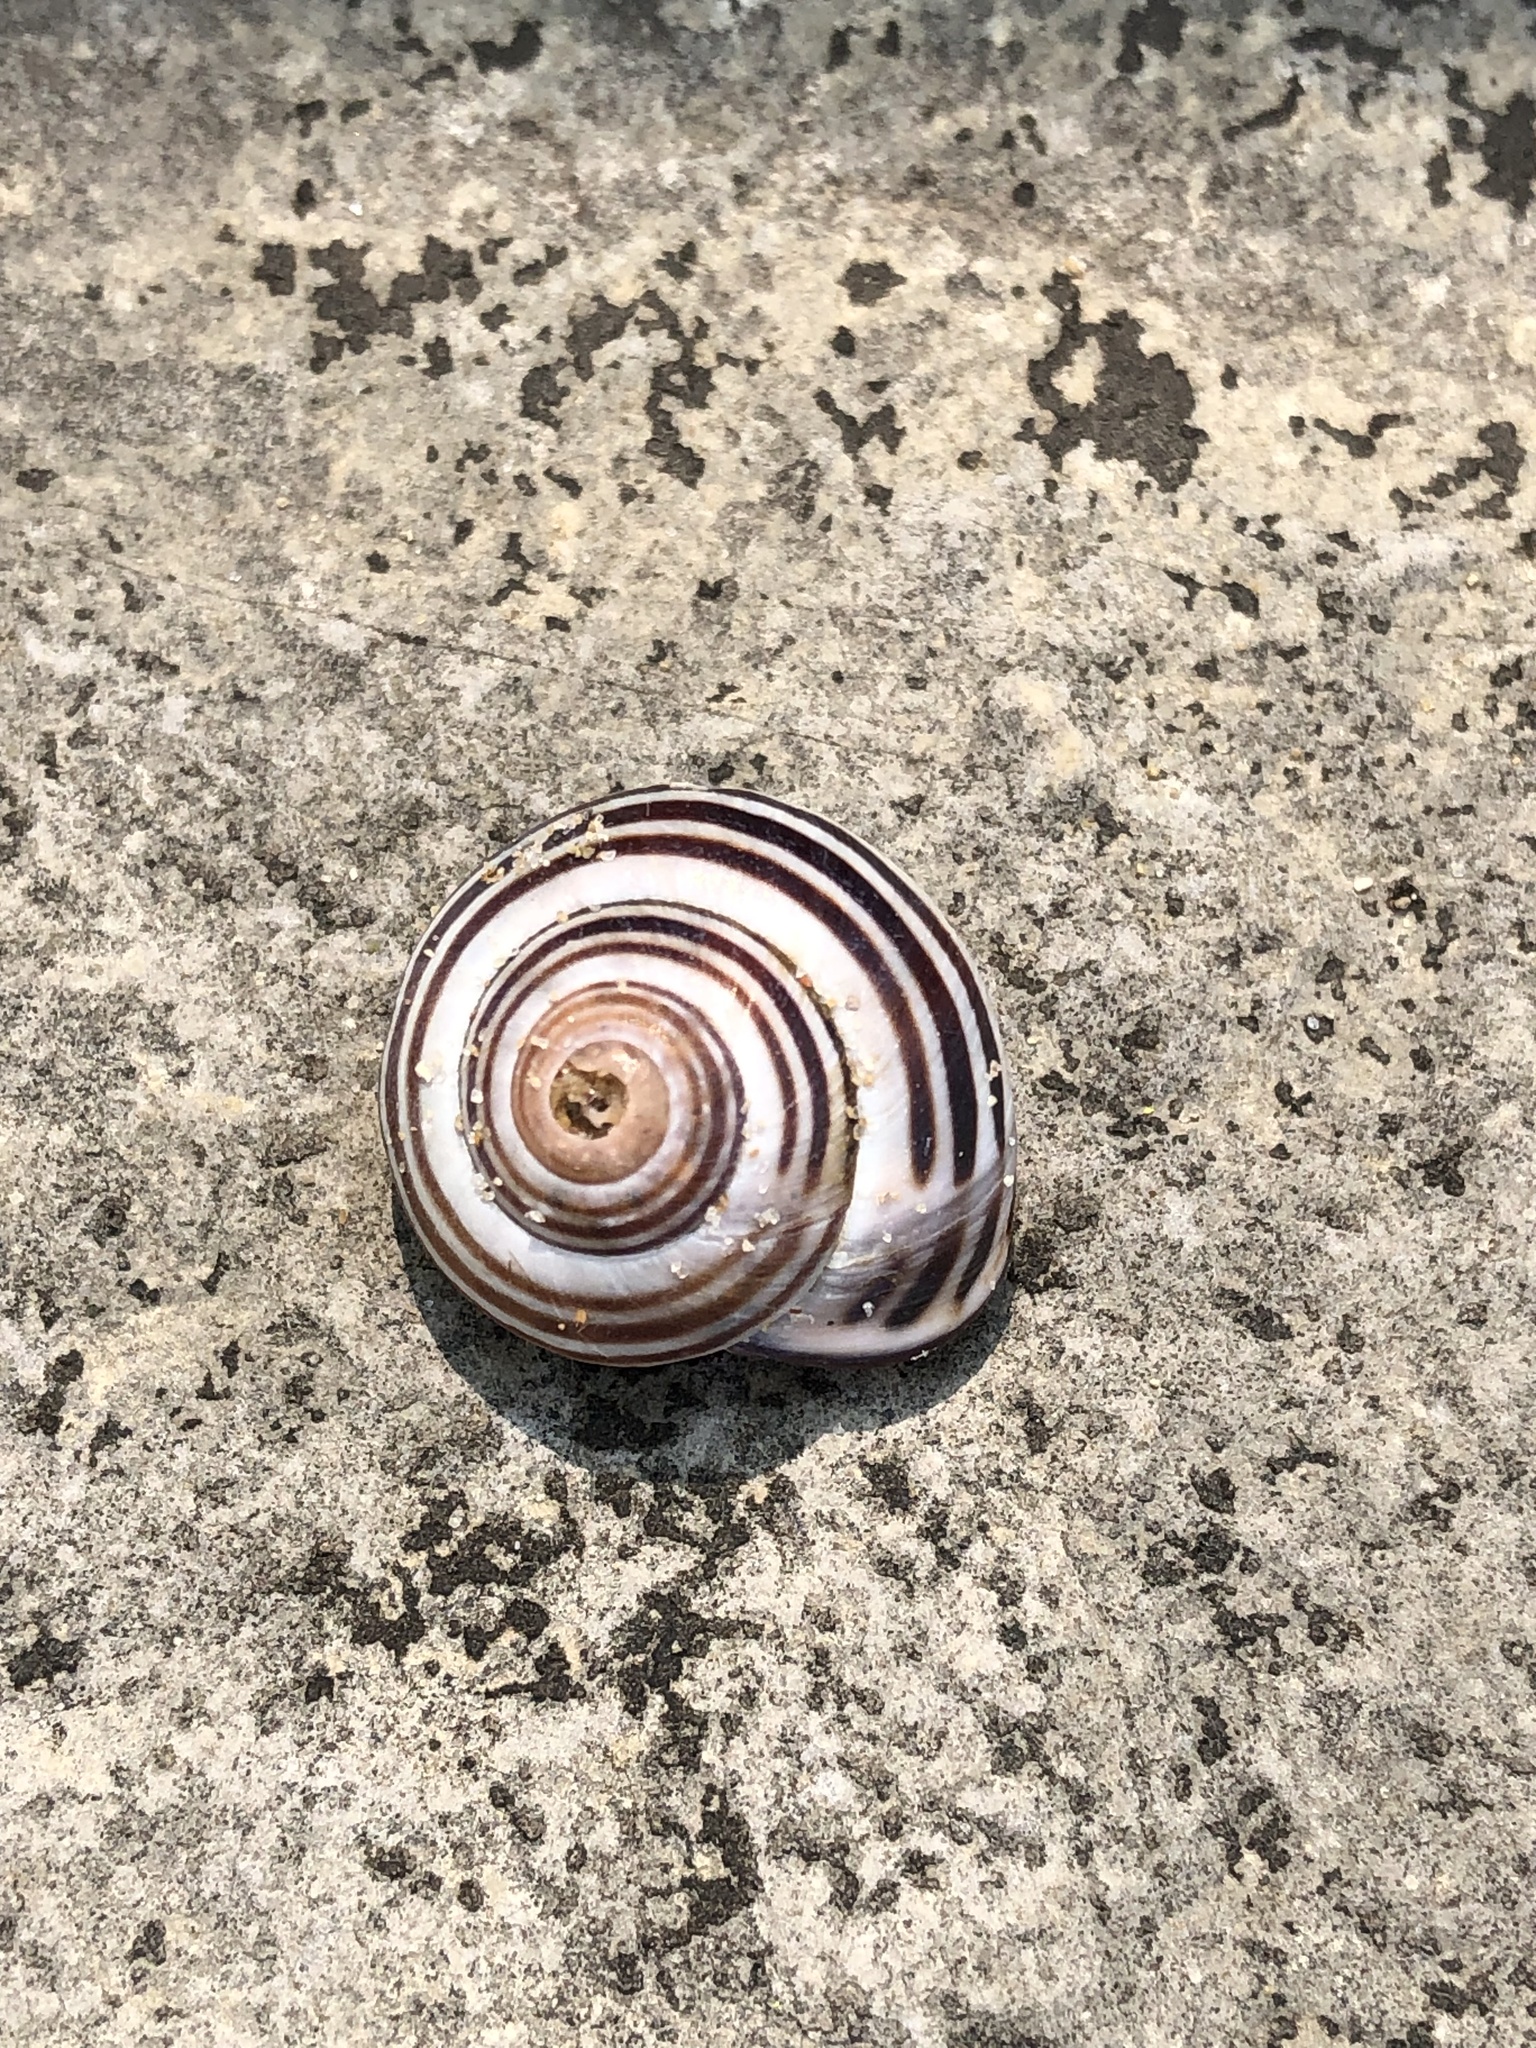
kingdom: Animalia
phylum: Mollusca
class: Gastropoda
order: Stylommatophora
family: Helicidae
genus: Cepaea
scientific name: Cepaea nemoralis
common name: Grovesnail
